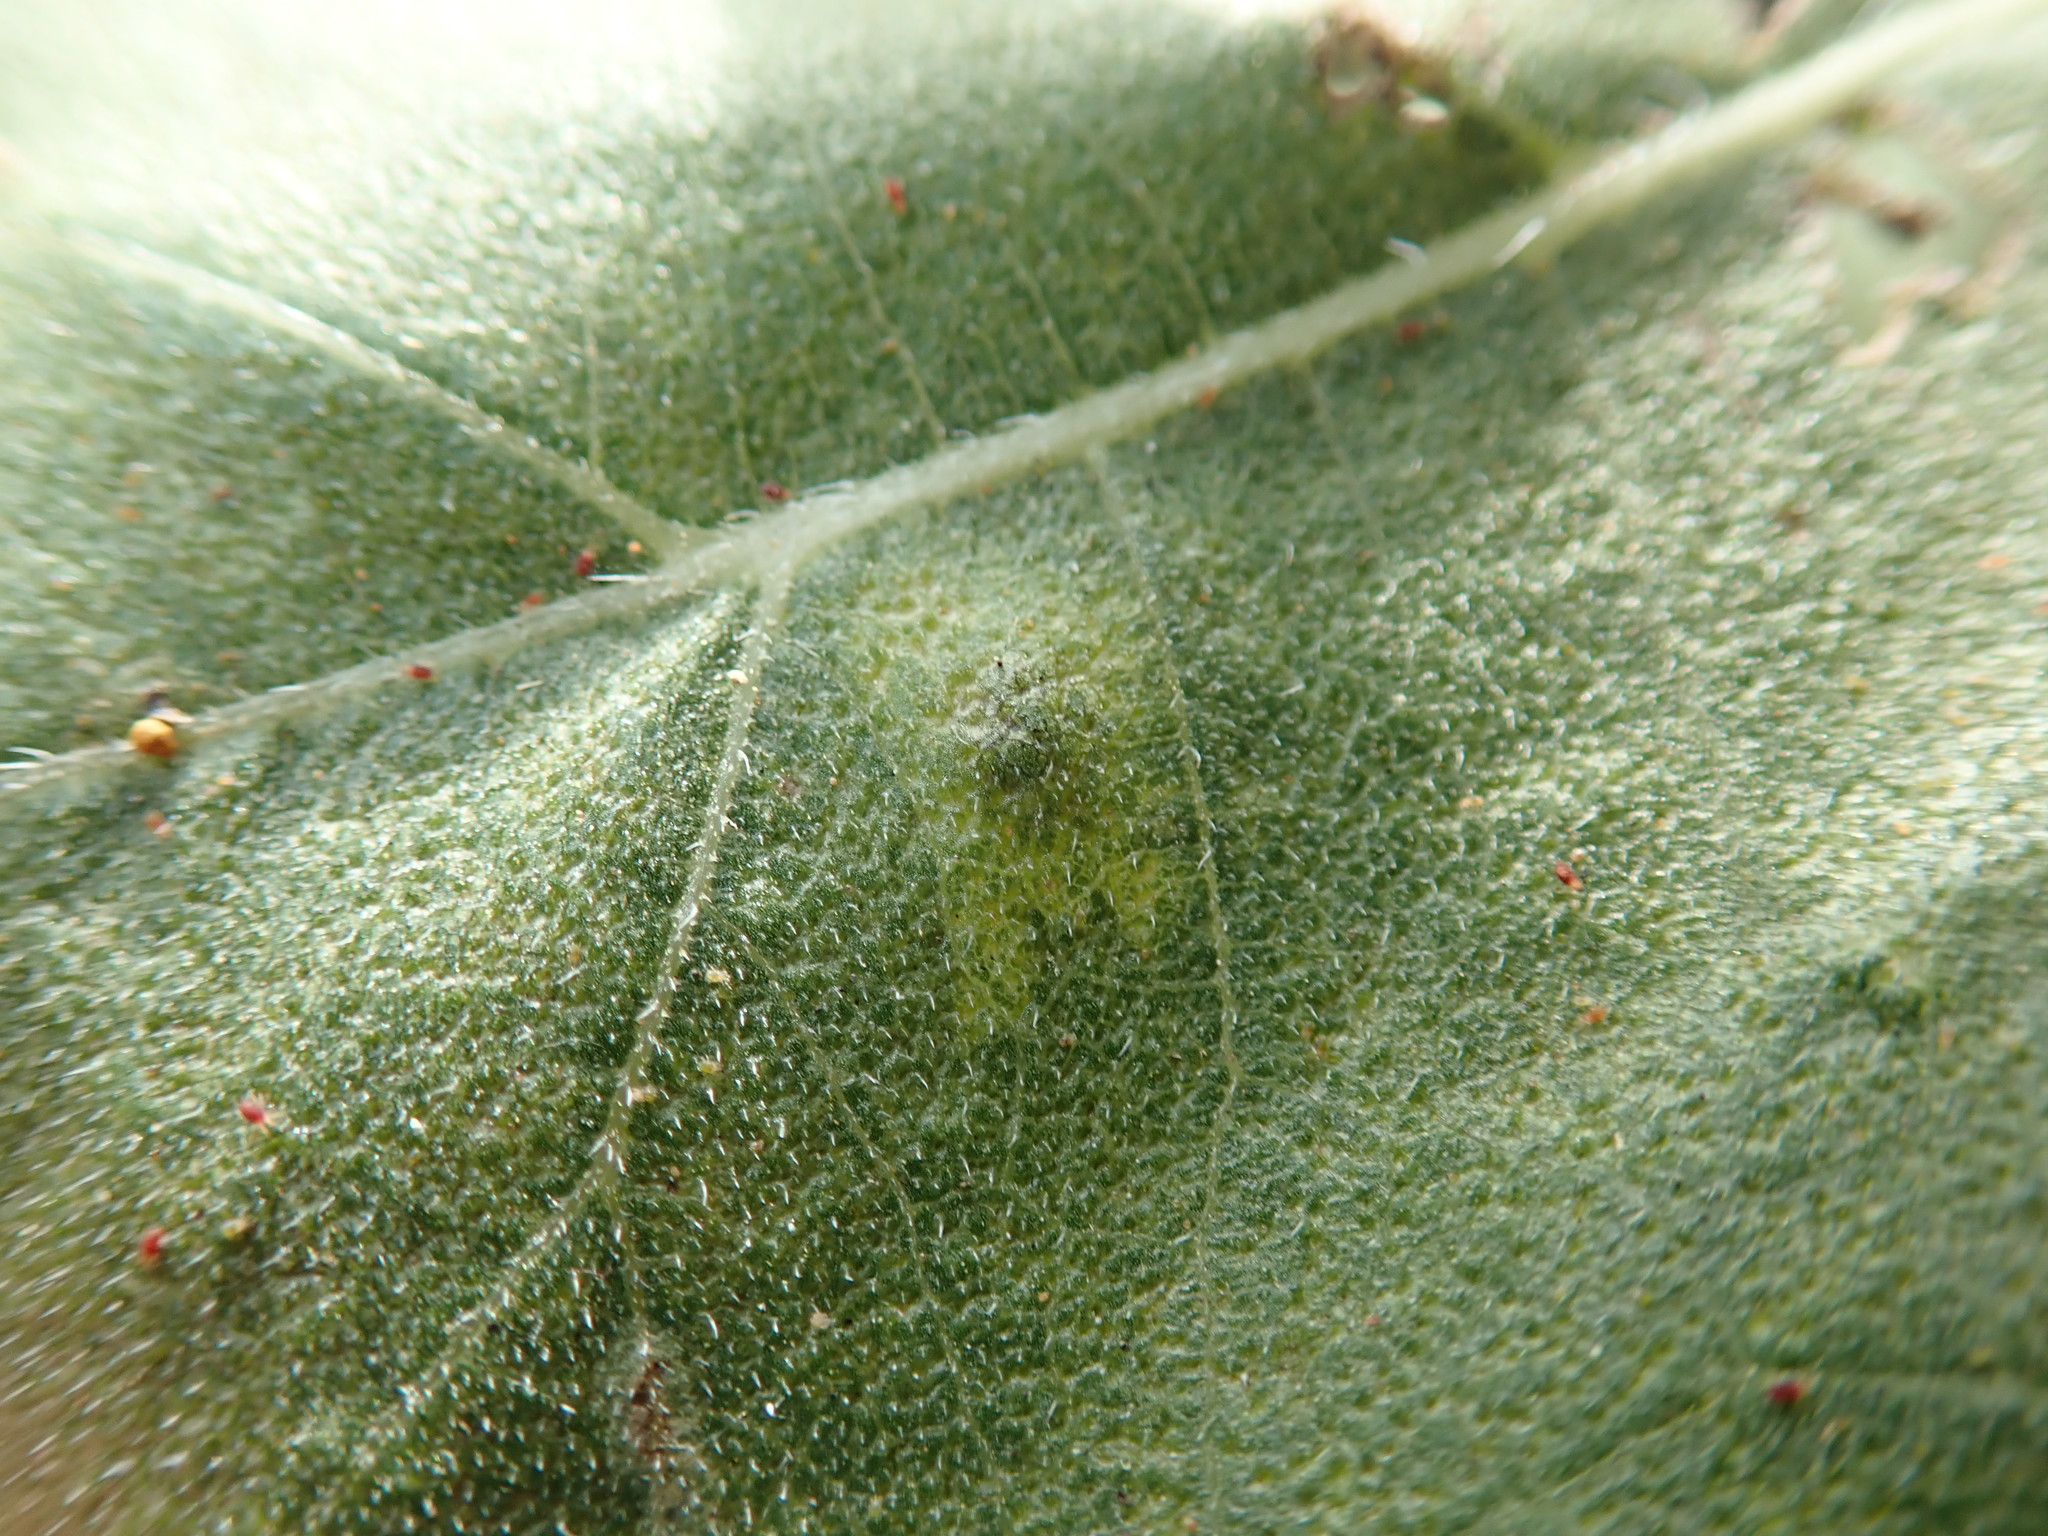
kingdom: Animalia
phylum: Arthropoda
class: Insecta
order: Diptera
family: Agromyzidae
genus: Calycomyza
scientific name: Calycomyza platyptera
